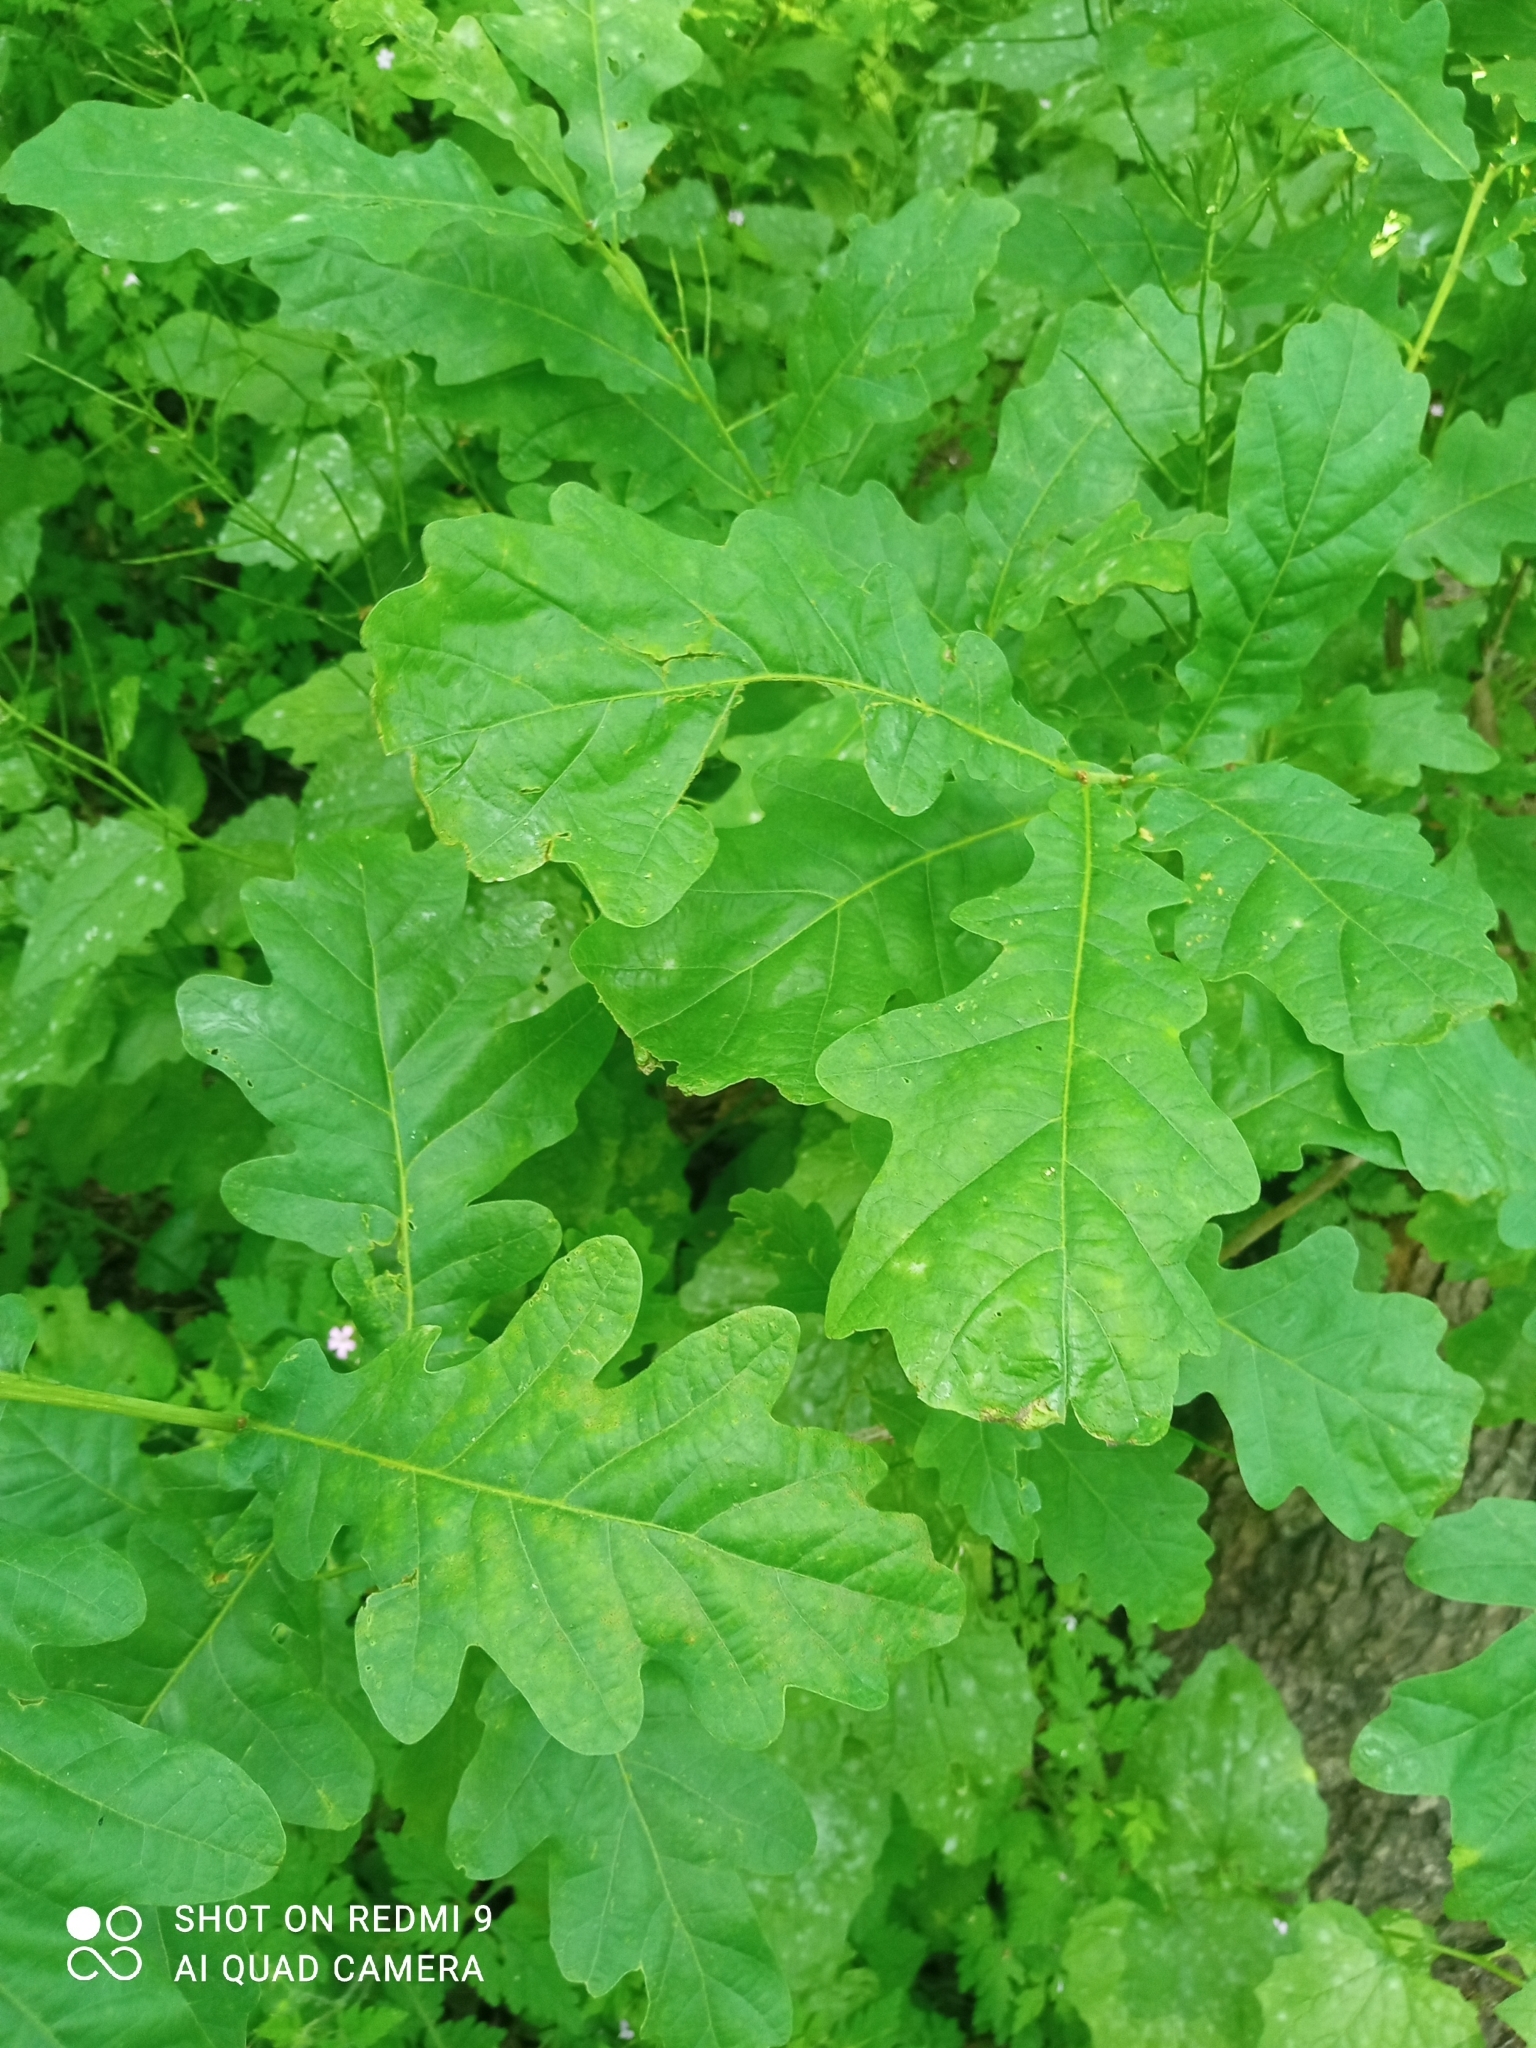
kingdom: Plantae
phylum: Tracheophyta
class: Magnoliopsida
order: Fagales
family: Fagaceae
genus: Quercus
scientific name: Quercus robur
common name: Pedunculate oak
